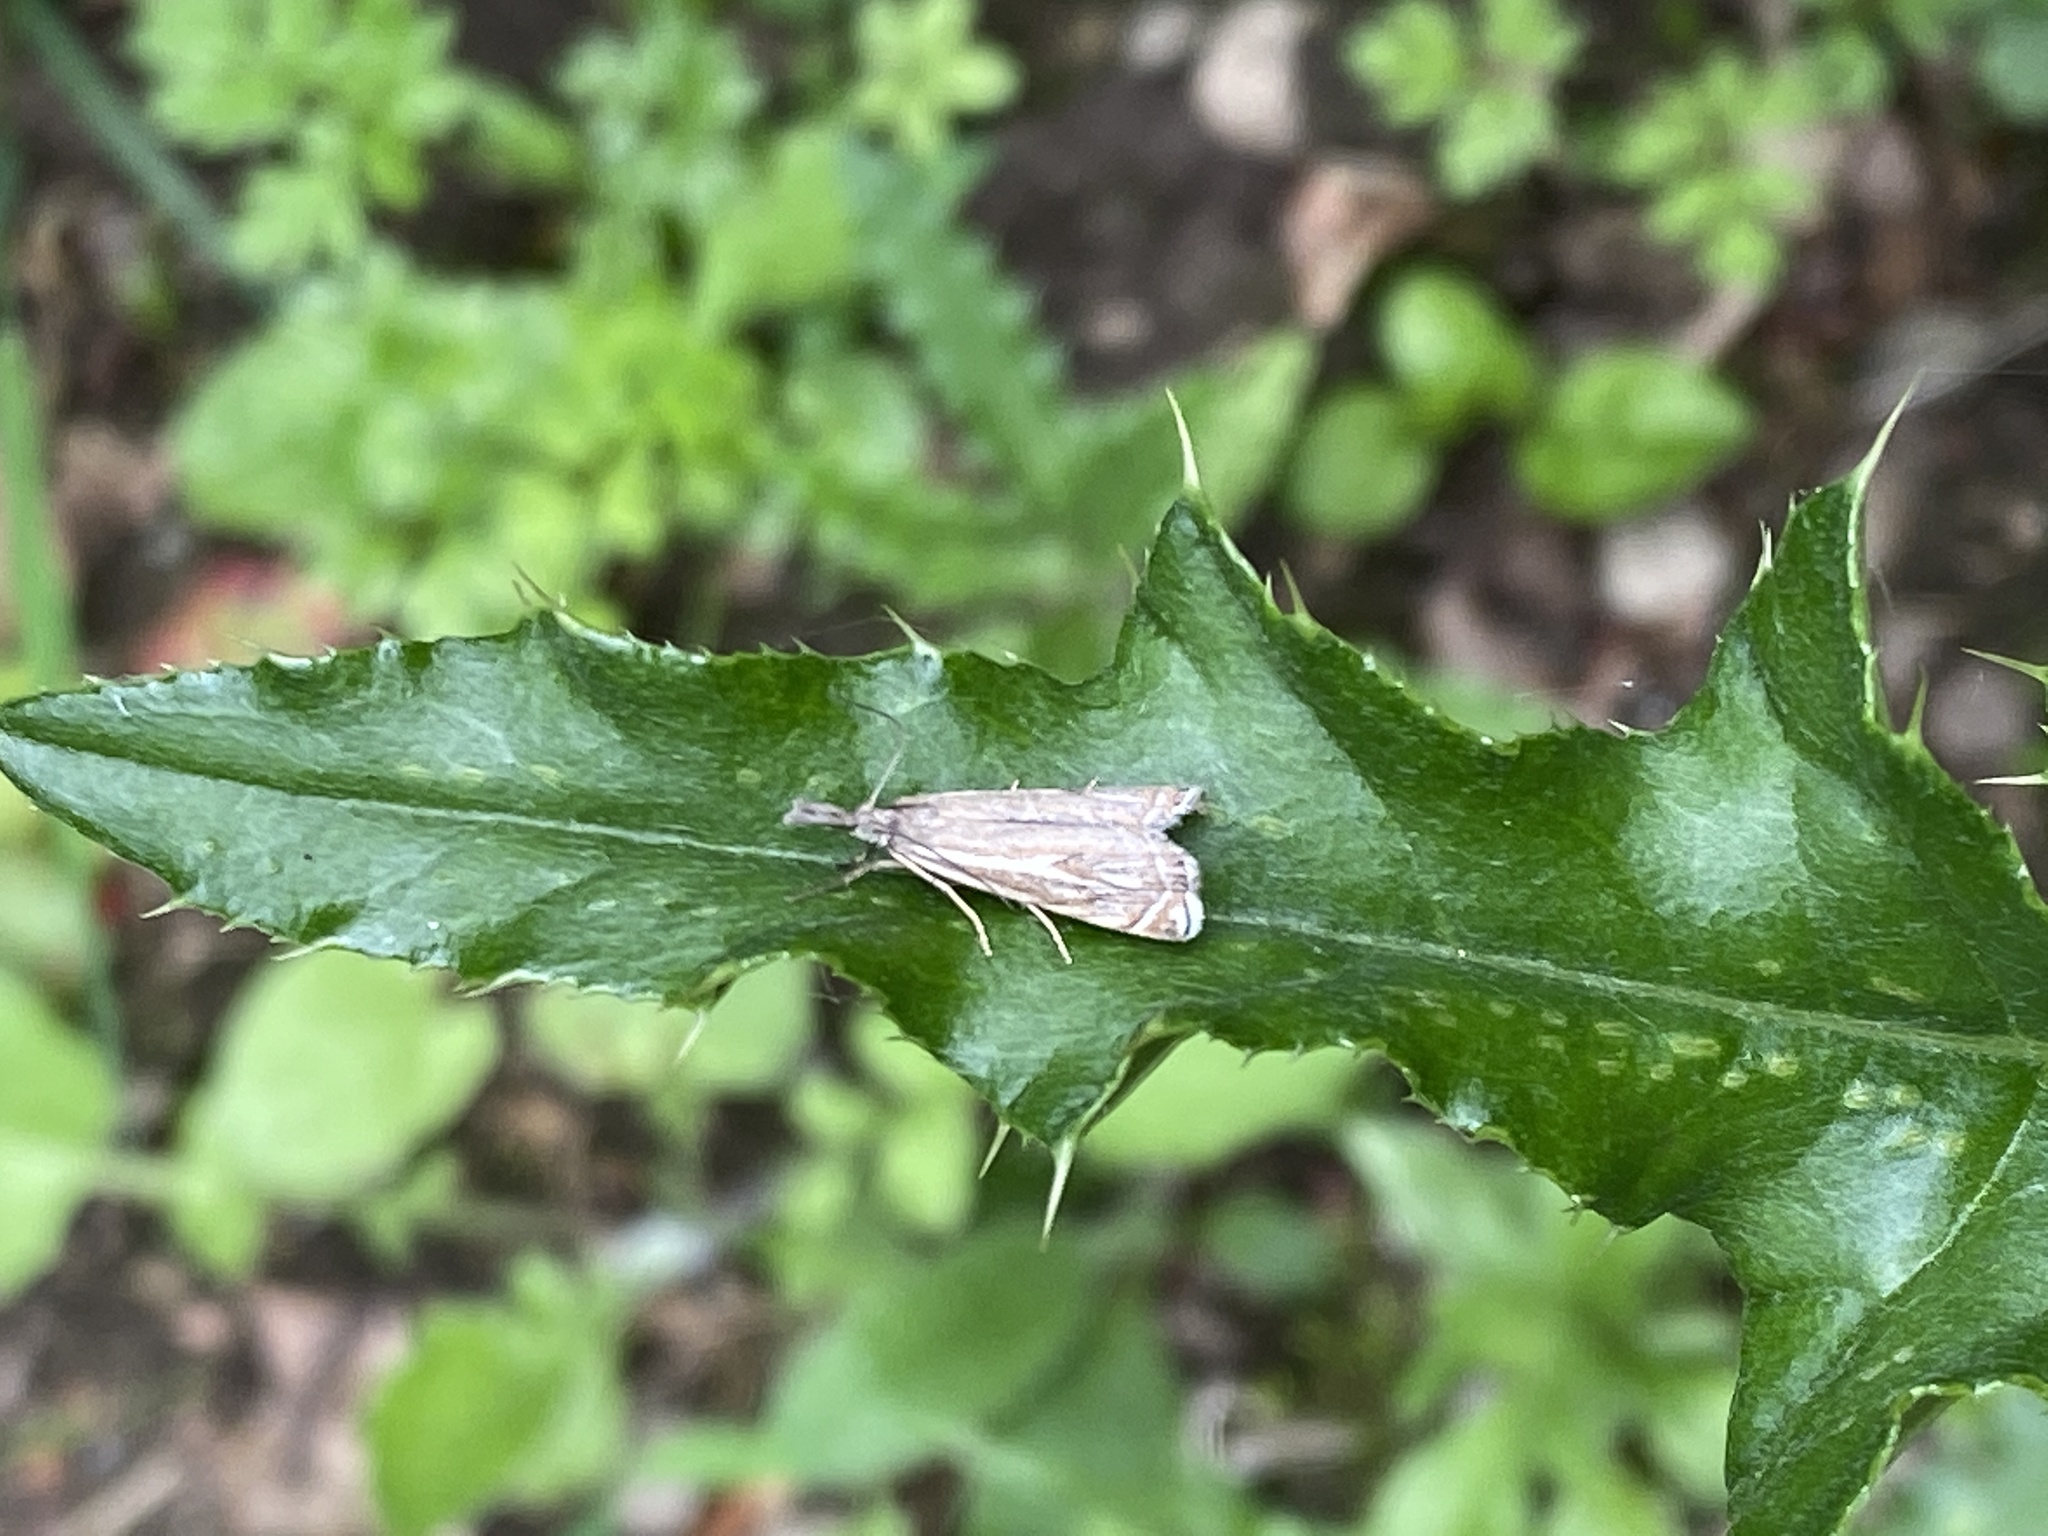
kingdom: Animalia
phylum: Arthropoda
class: Insecta
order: Lepidoptera
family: Crambidae
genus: Crambus
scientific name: Crambus nemorella
